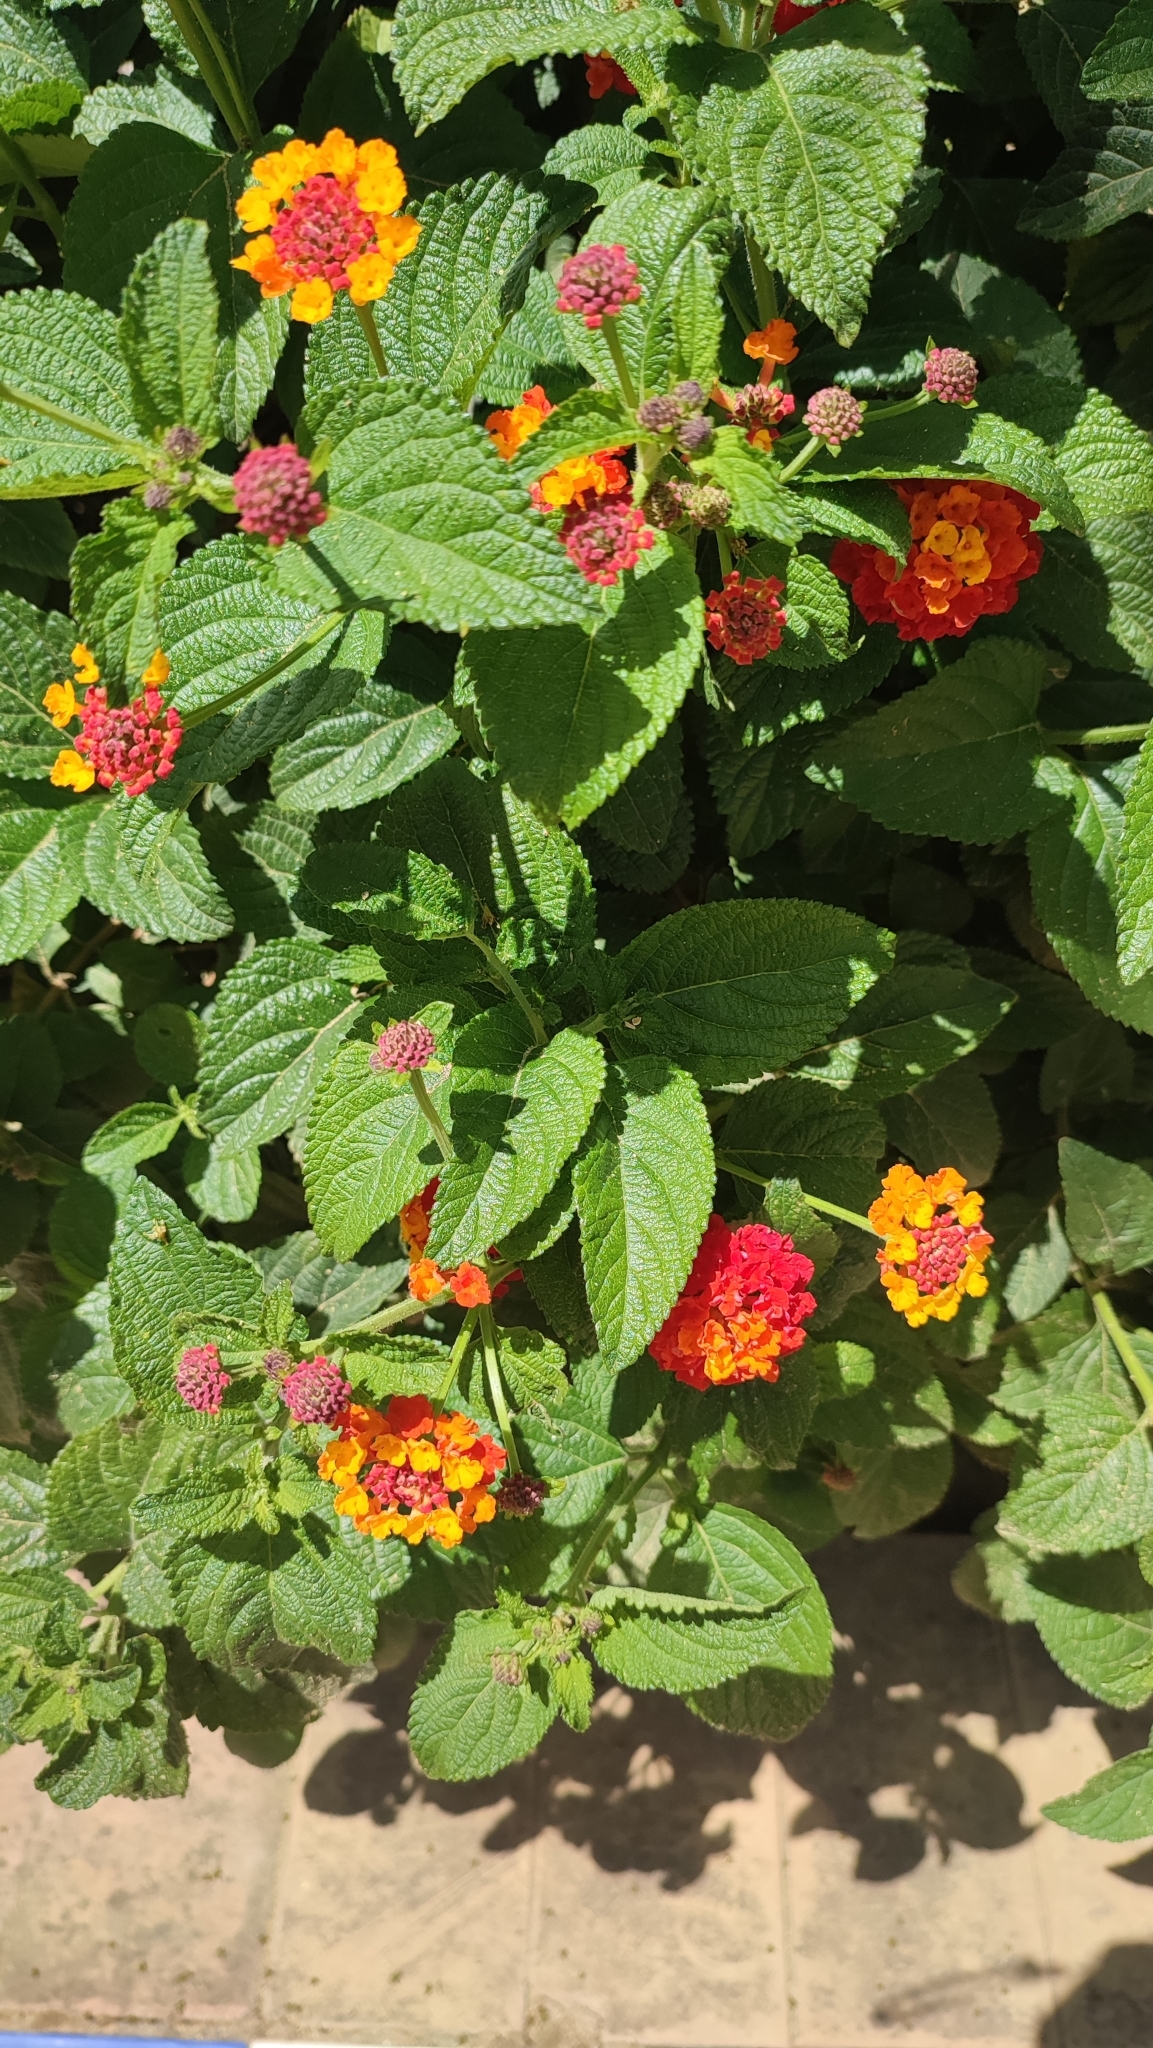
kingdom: Plantae
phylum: Tracheophyta
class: Magnoliopsida
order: Lamiales
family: Verbenaceae
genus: Lantana
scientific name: Lantana camara
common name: Lantana
